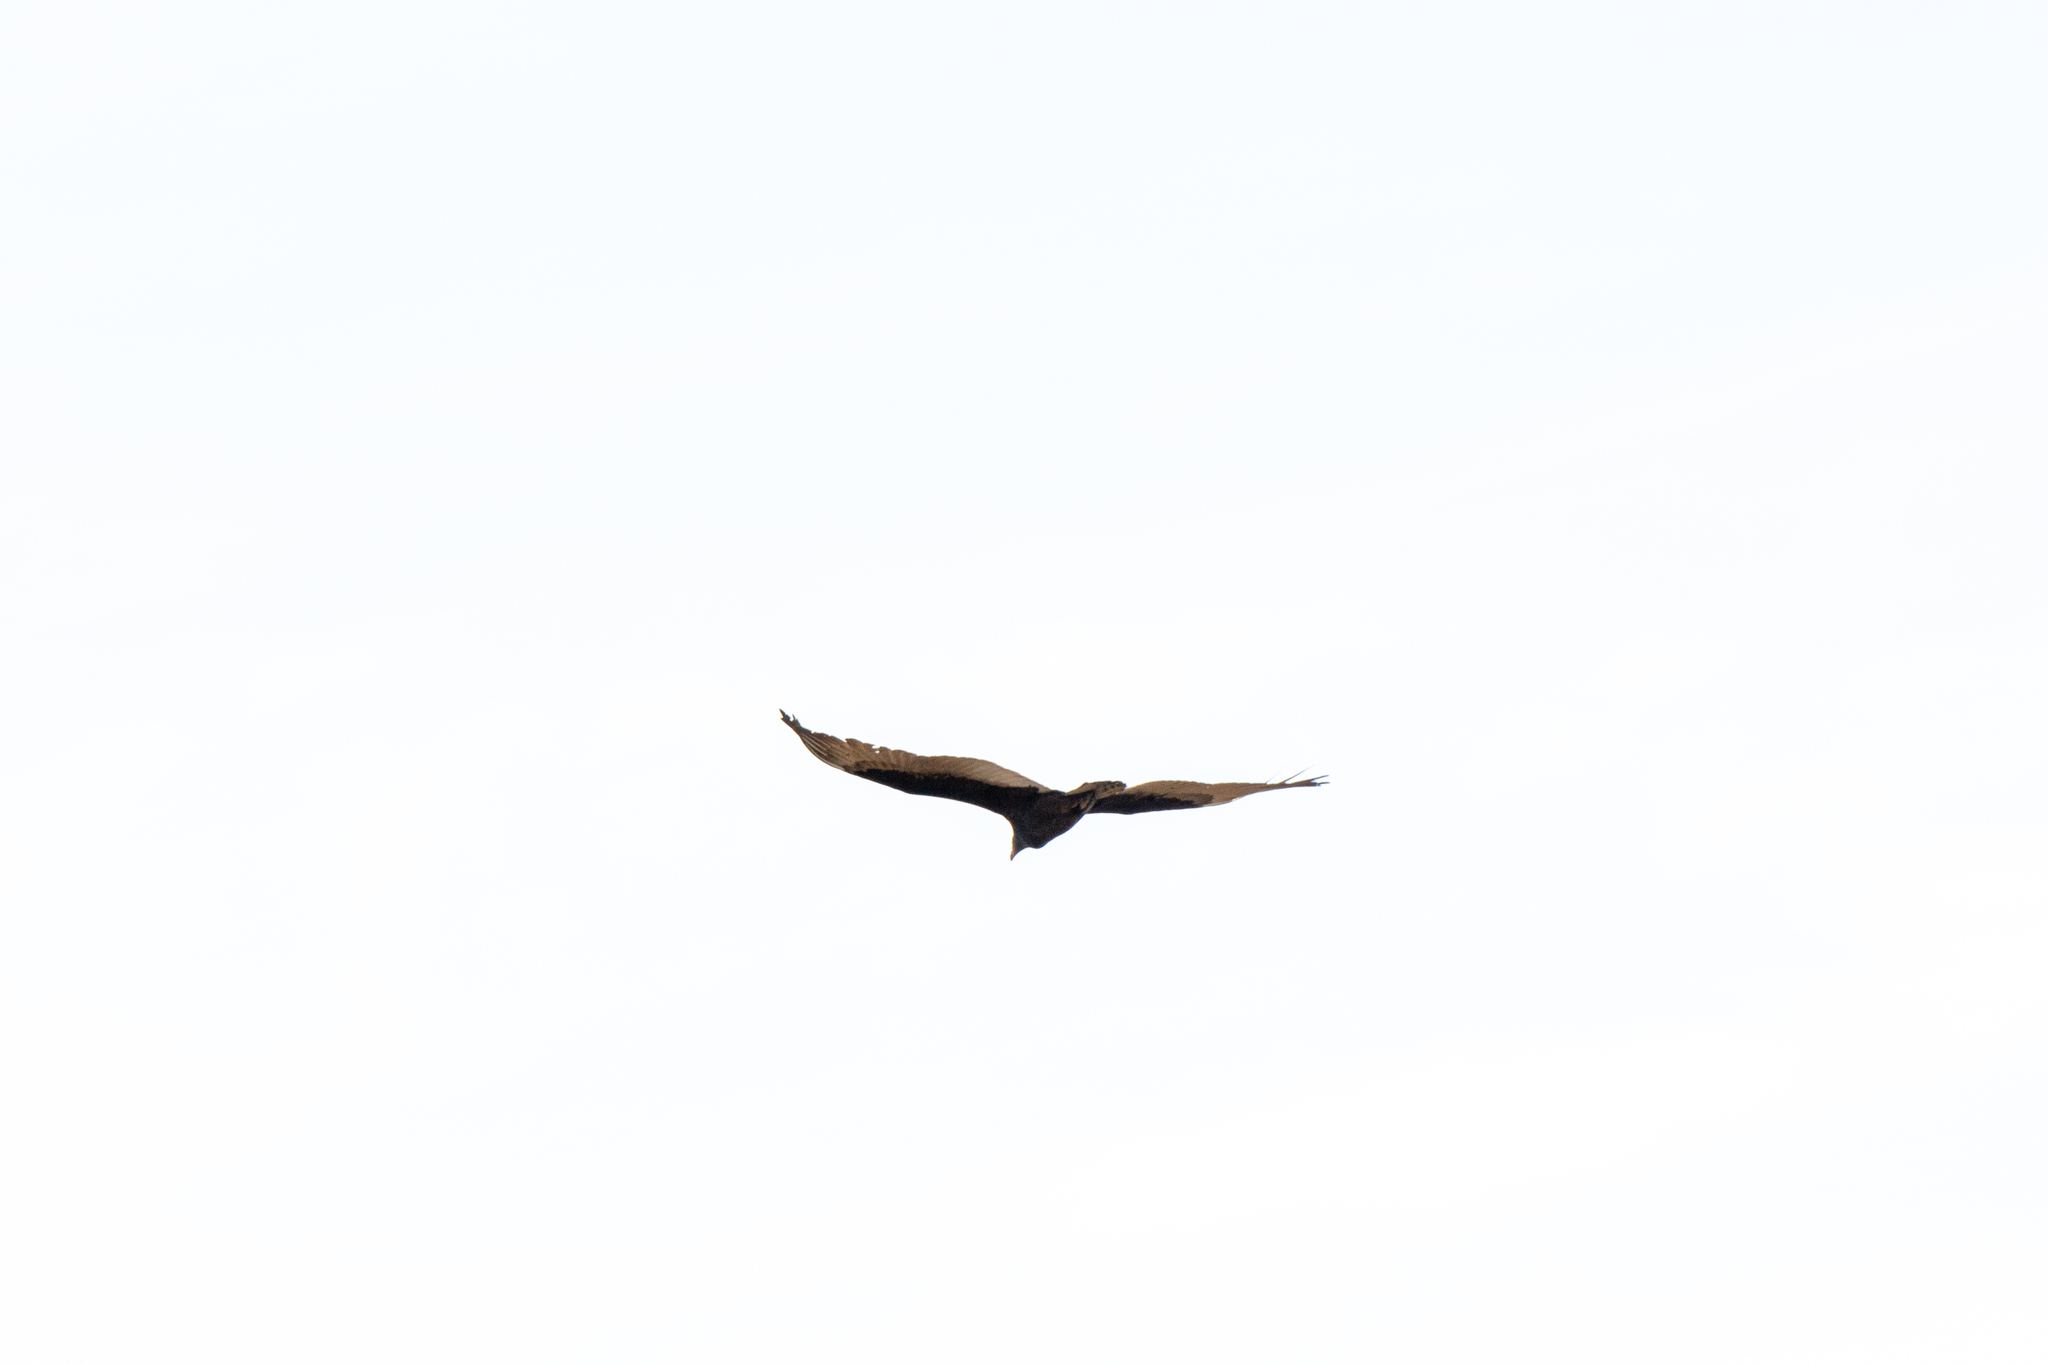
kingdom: Animalia
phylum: Chordata
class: Aves
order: Accipitriformes
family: Cathartidae
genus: Cathartes
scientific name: Cathartes aura
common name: Turkey vulture
